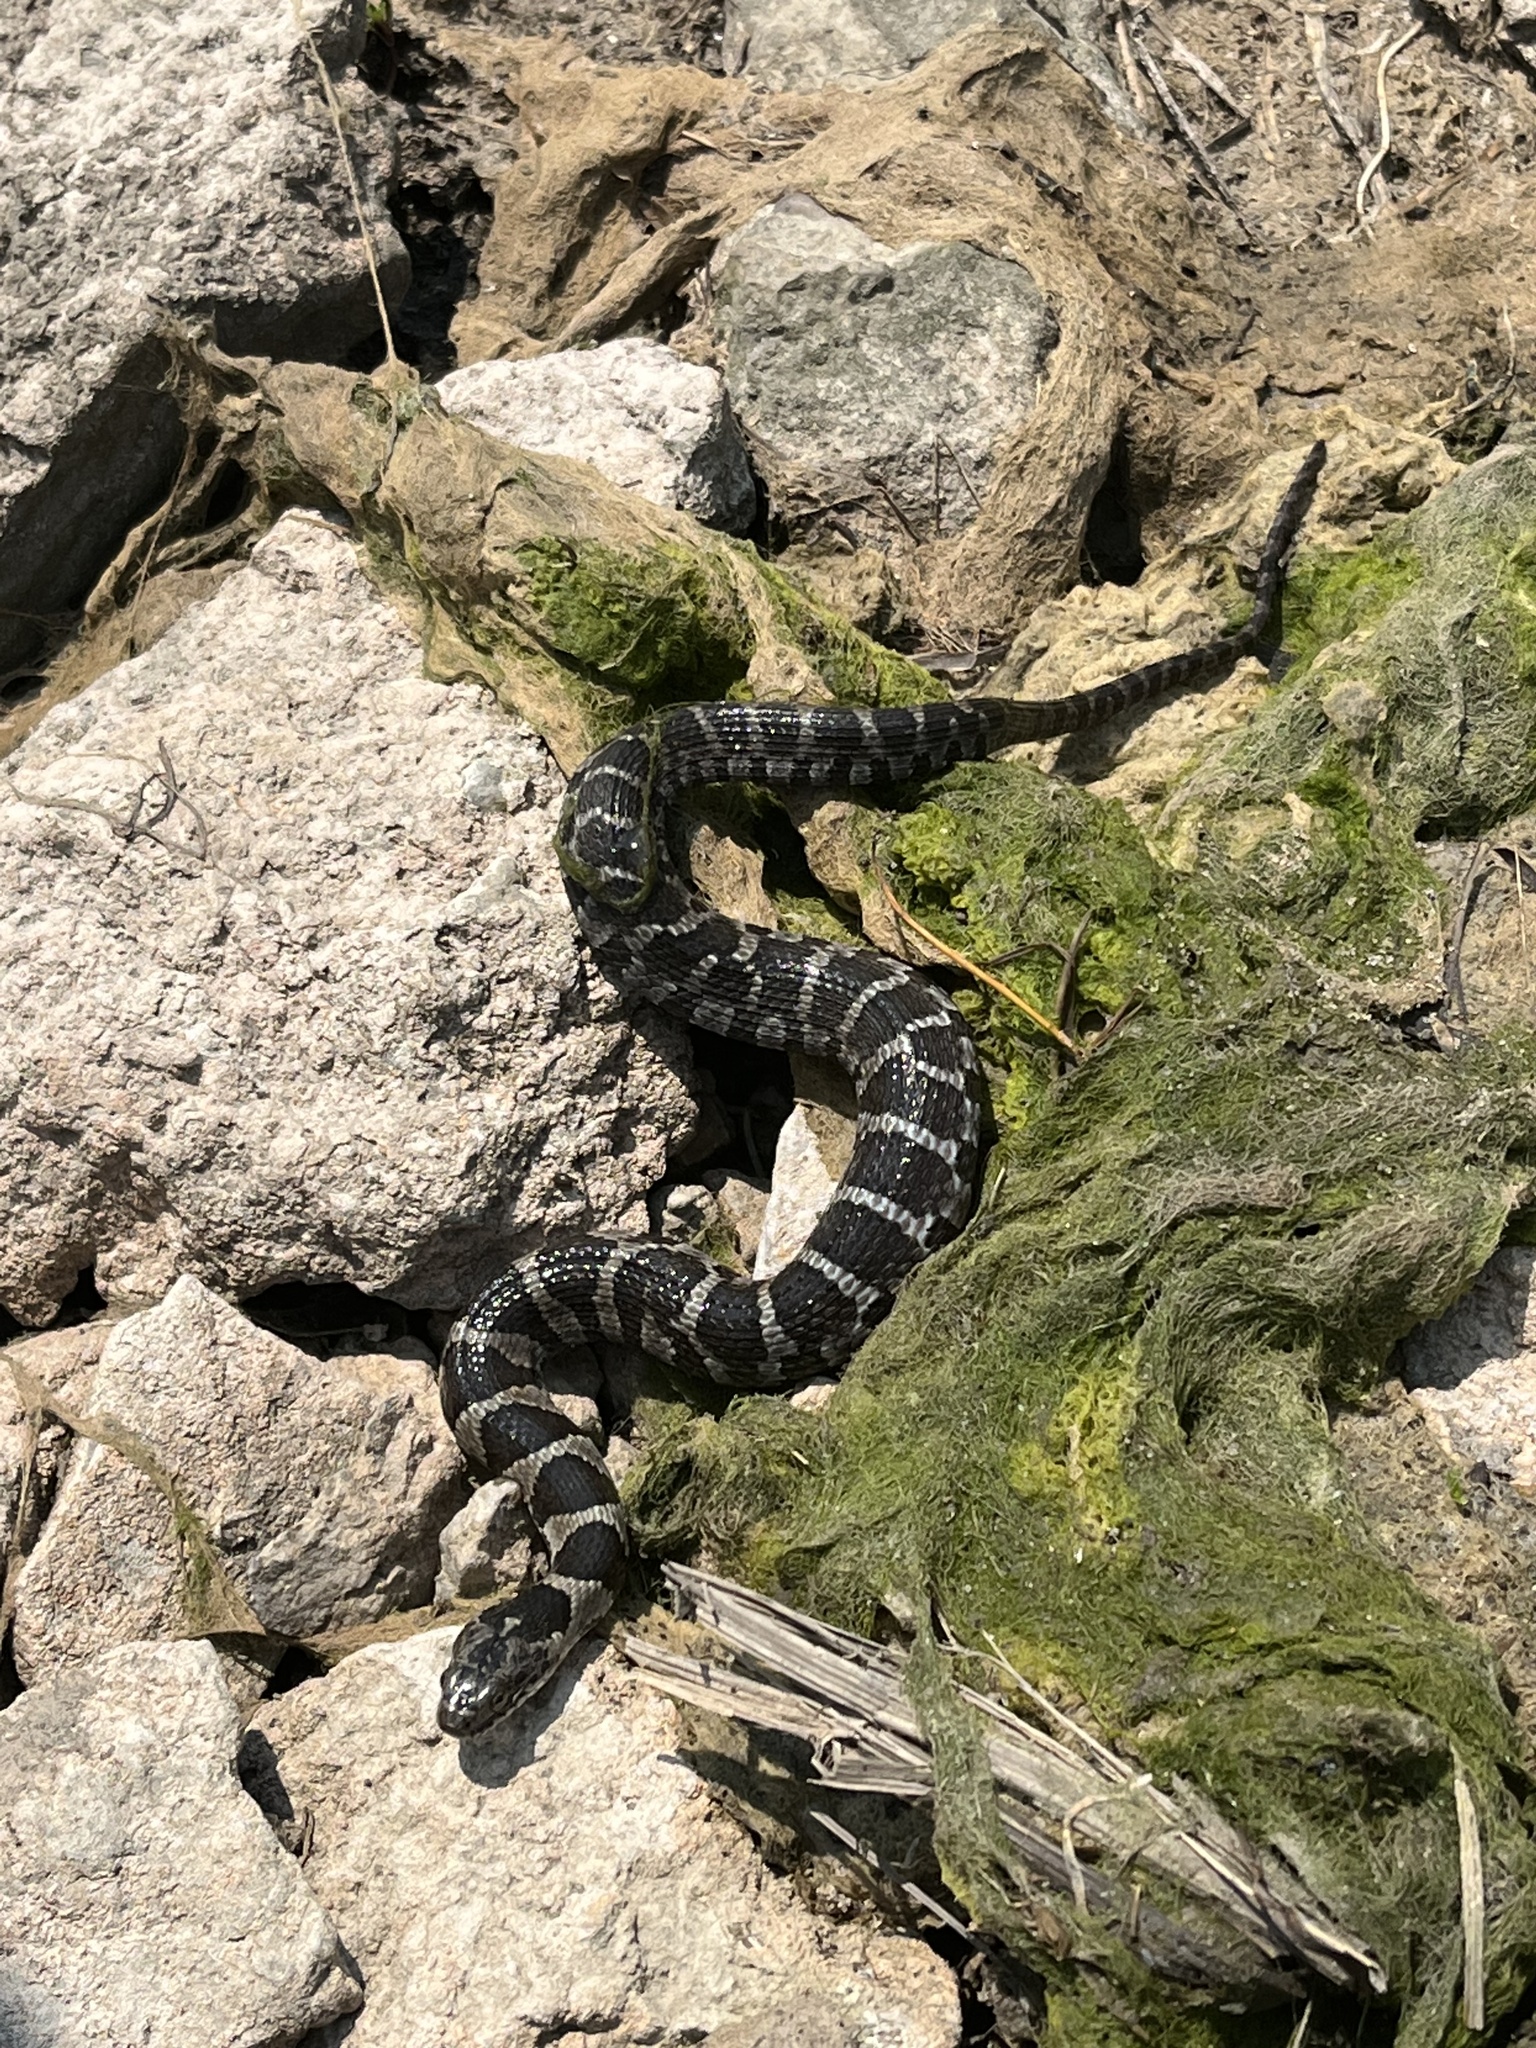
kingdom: Animalia
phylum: Chordata
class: Squamata
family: Colubridae
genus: Nerodia
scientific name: Nerodia sipedon
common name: Northern water snake
